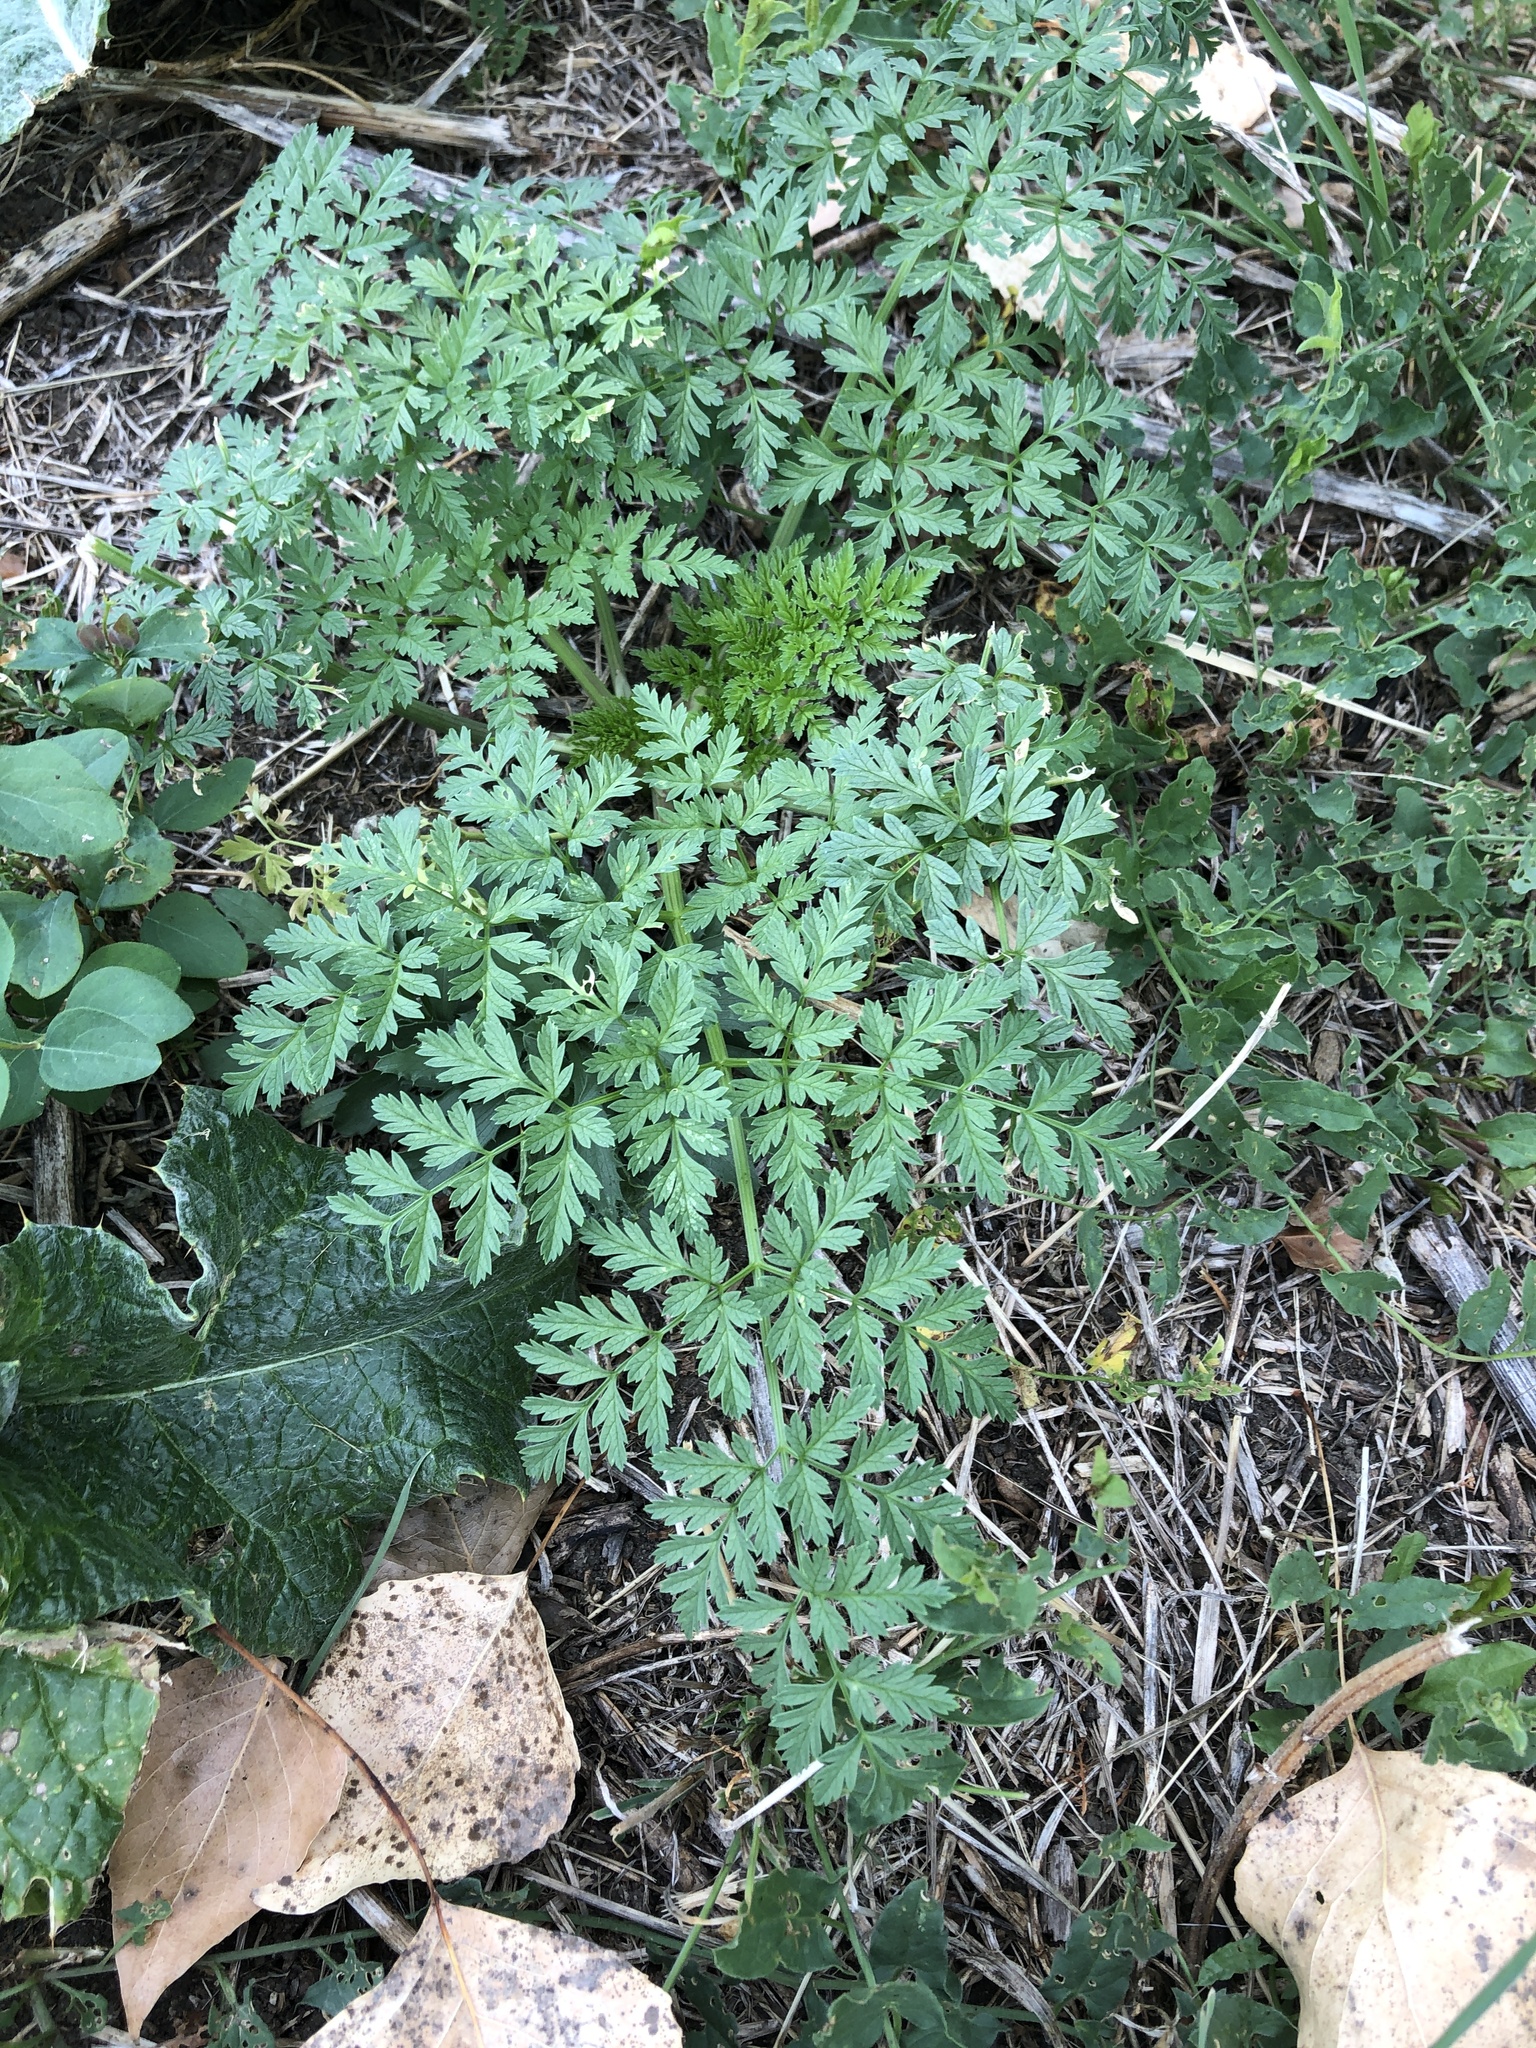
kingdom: Plantae
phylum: Tracheophyta
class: Magnoliopsida
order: Apiales
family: Apiaceae
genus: Conium
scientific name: Conium maculatum
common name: Hemlock
